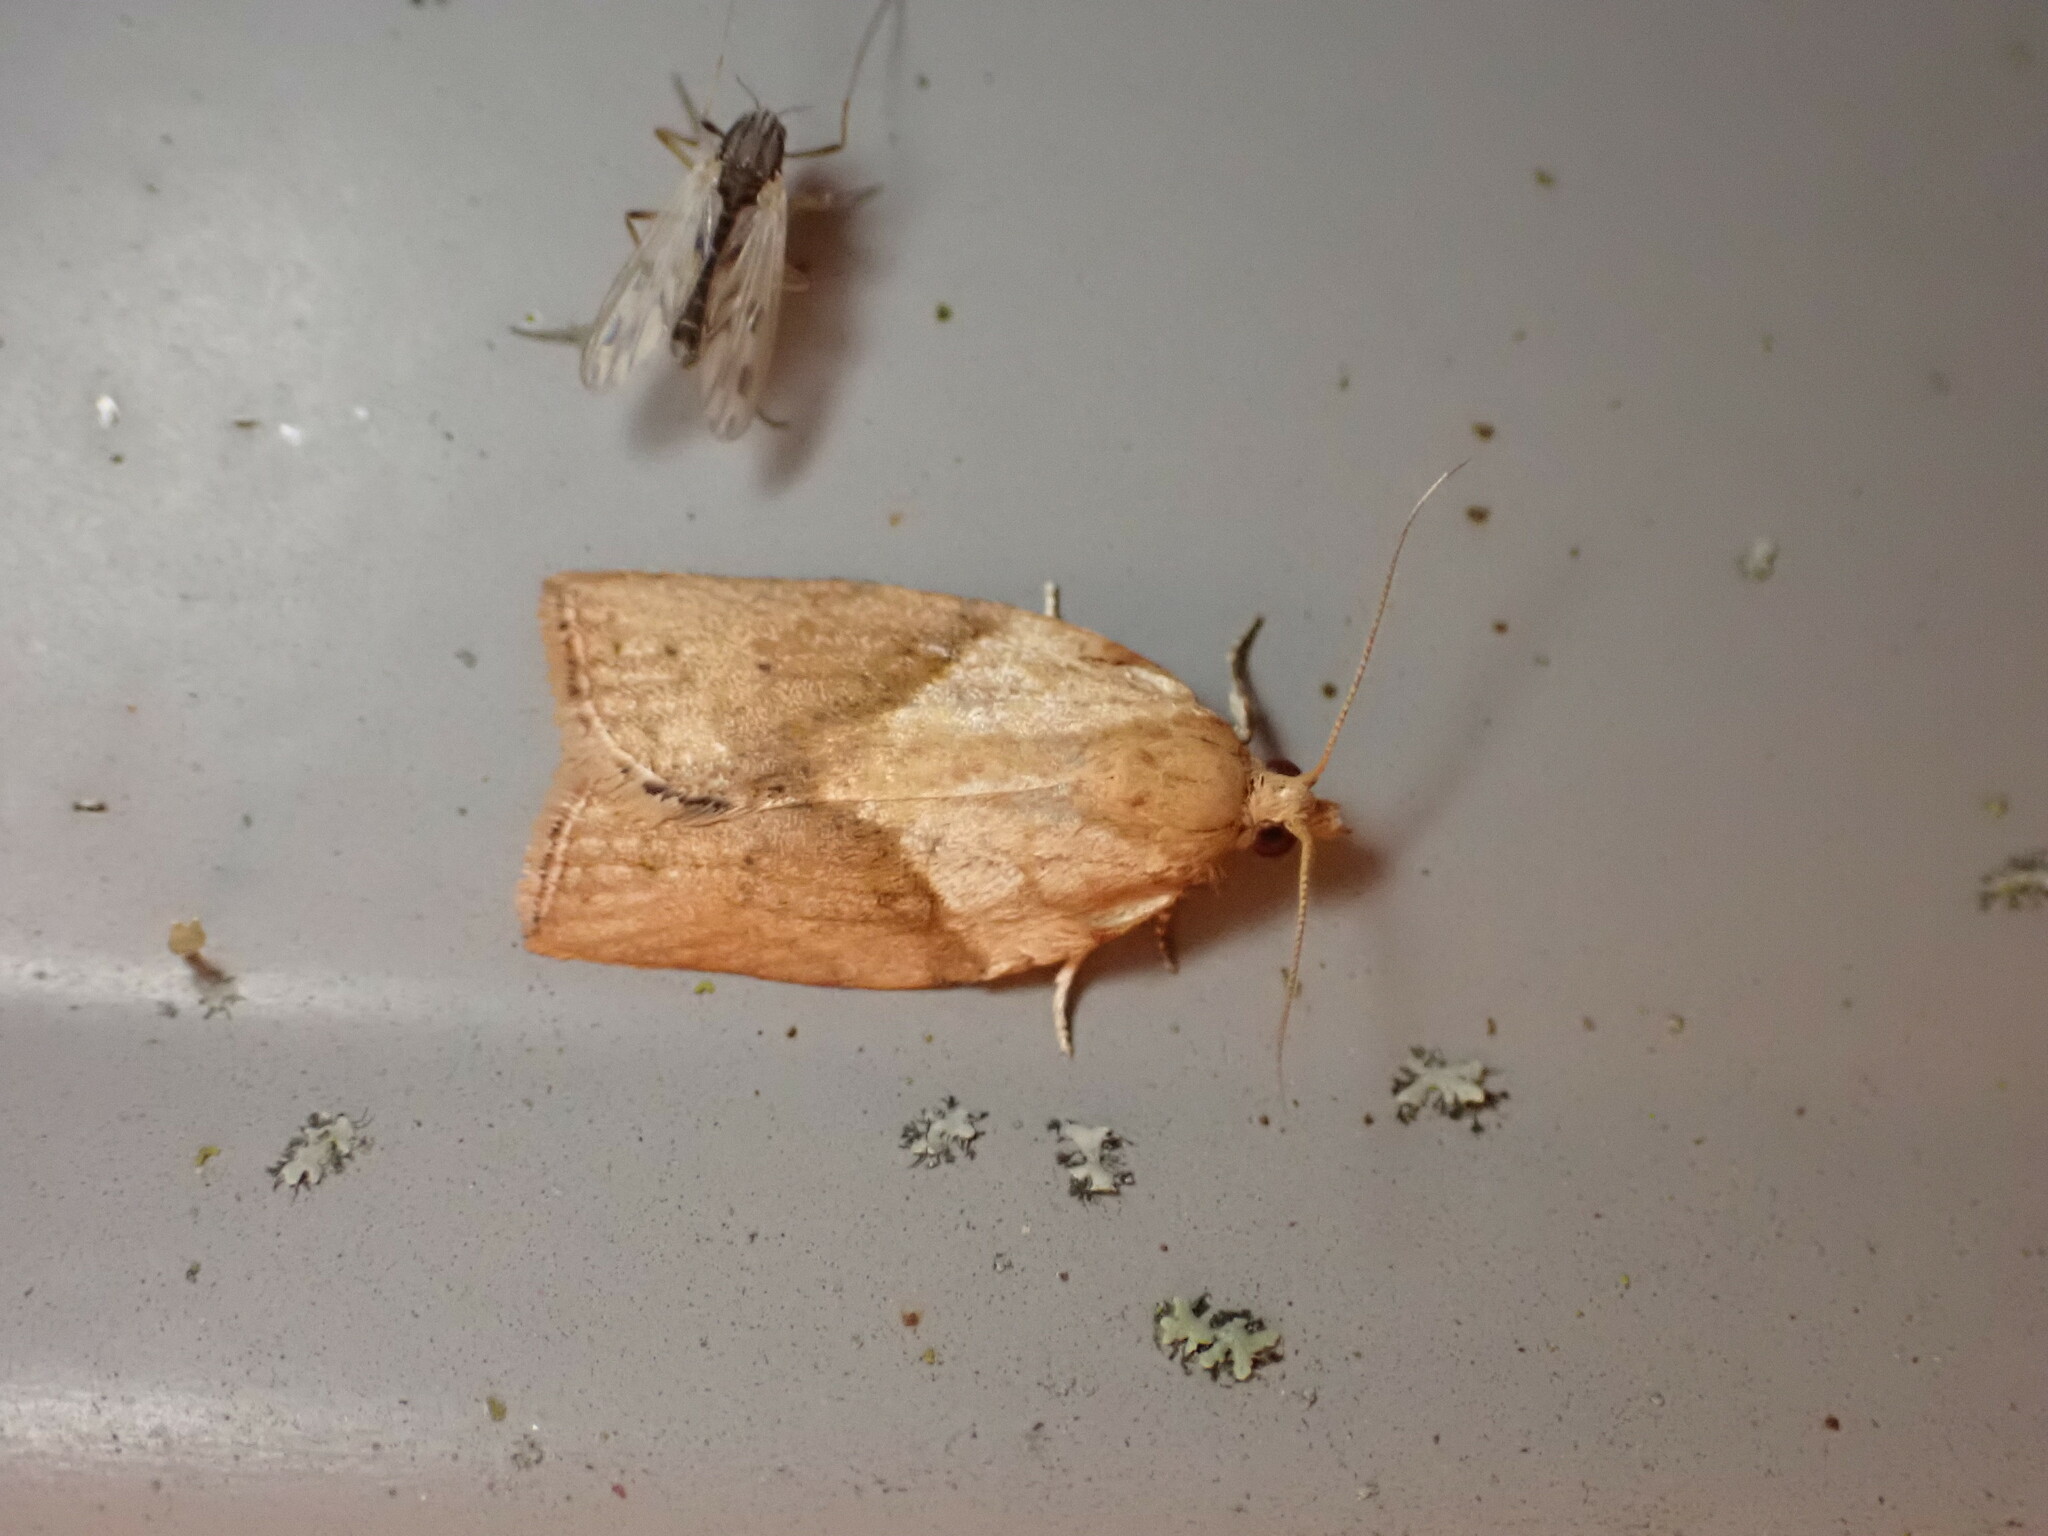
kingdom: Animalia
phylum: Arthropoda
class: Insecta
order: Lepidoptera
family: Tortricidae
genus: Epiphyas
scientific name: Epiphyas postvittana
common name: Light brown apple moth
